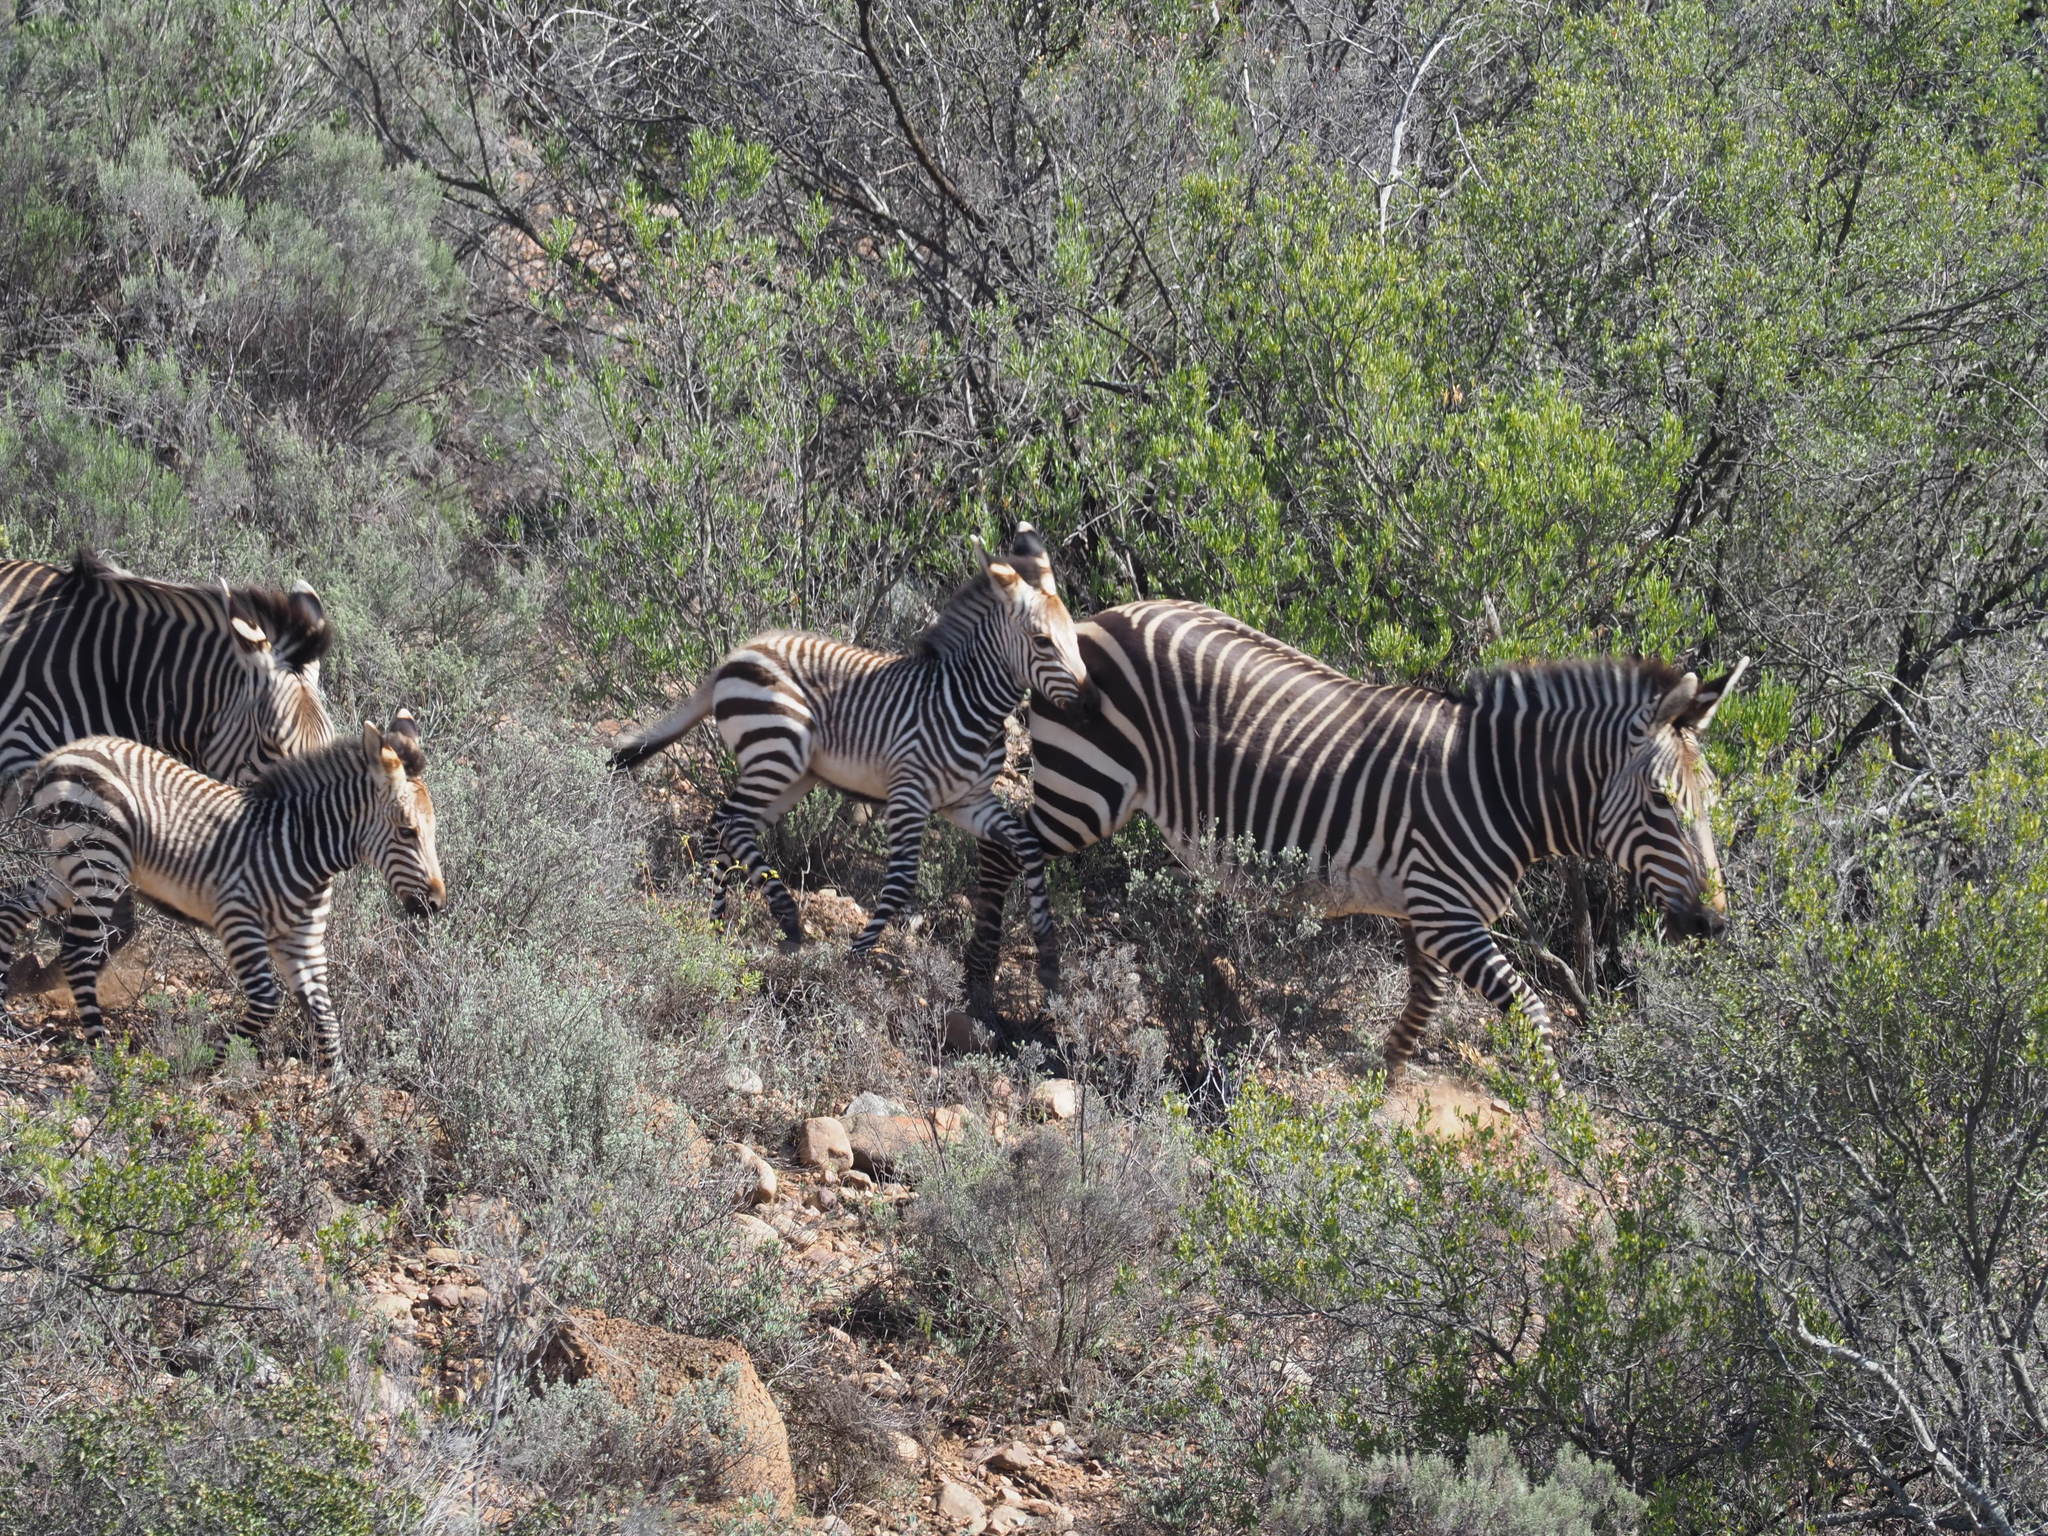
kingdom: Animalia
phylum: Chordata
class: Mammalia
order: Perissodactyla
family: Equidae
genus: Equus
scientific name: Equus zebra
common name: Mountain zebra
